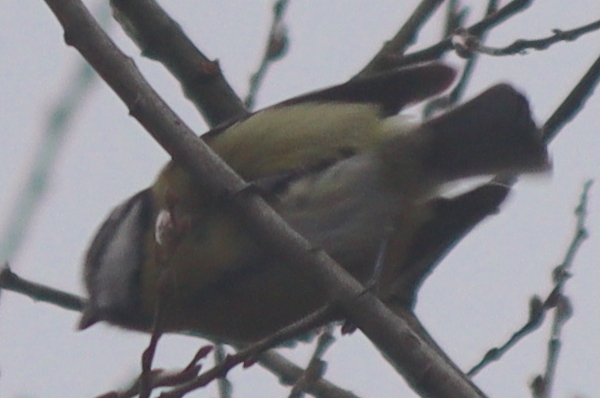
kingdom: Animalia
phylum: Chordata
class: Aves
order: Passeriformes
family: Paridae
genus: Cyanistes
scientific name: Cyanistes caeruleus
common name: Eurasian blue tit
